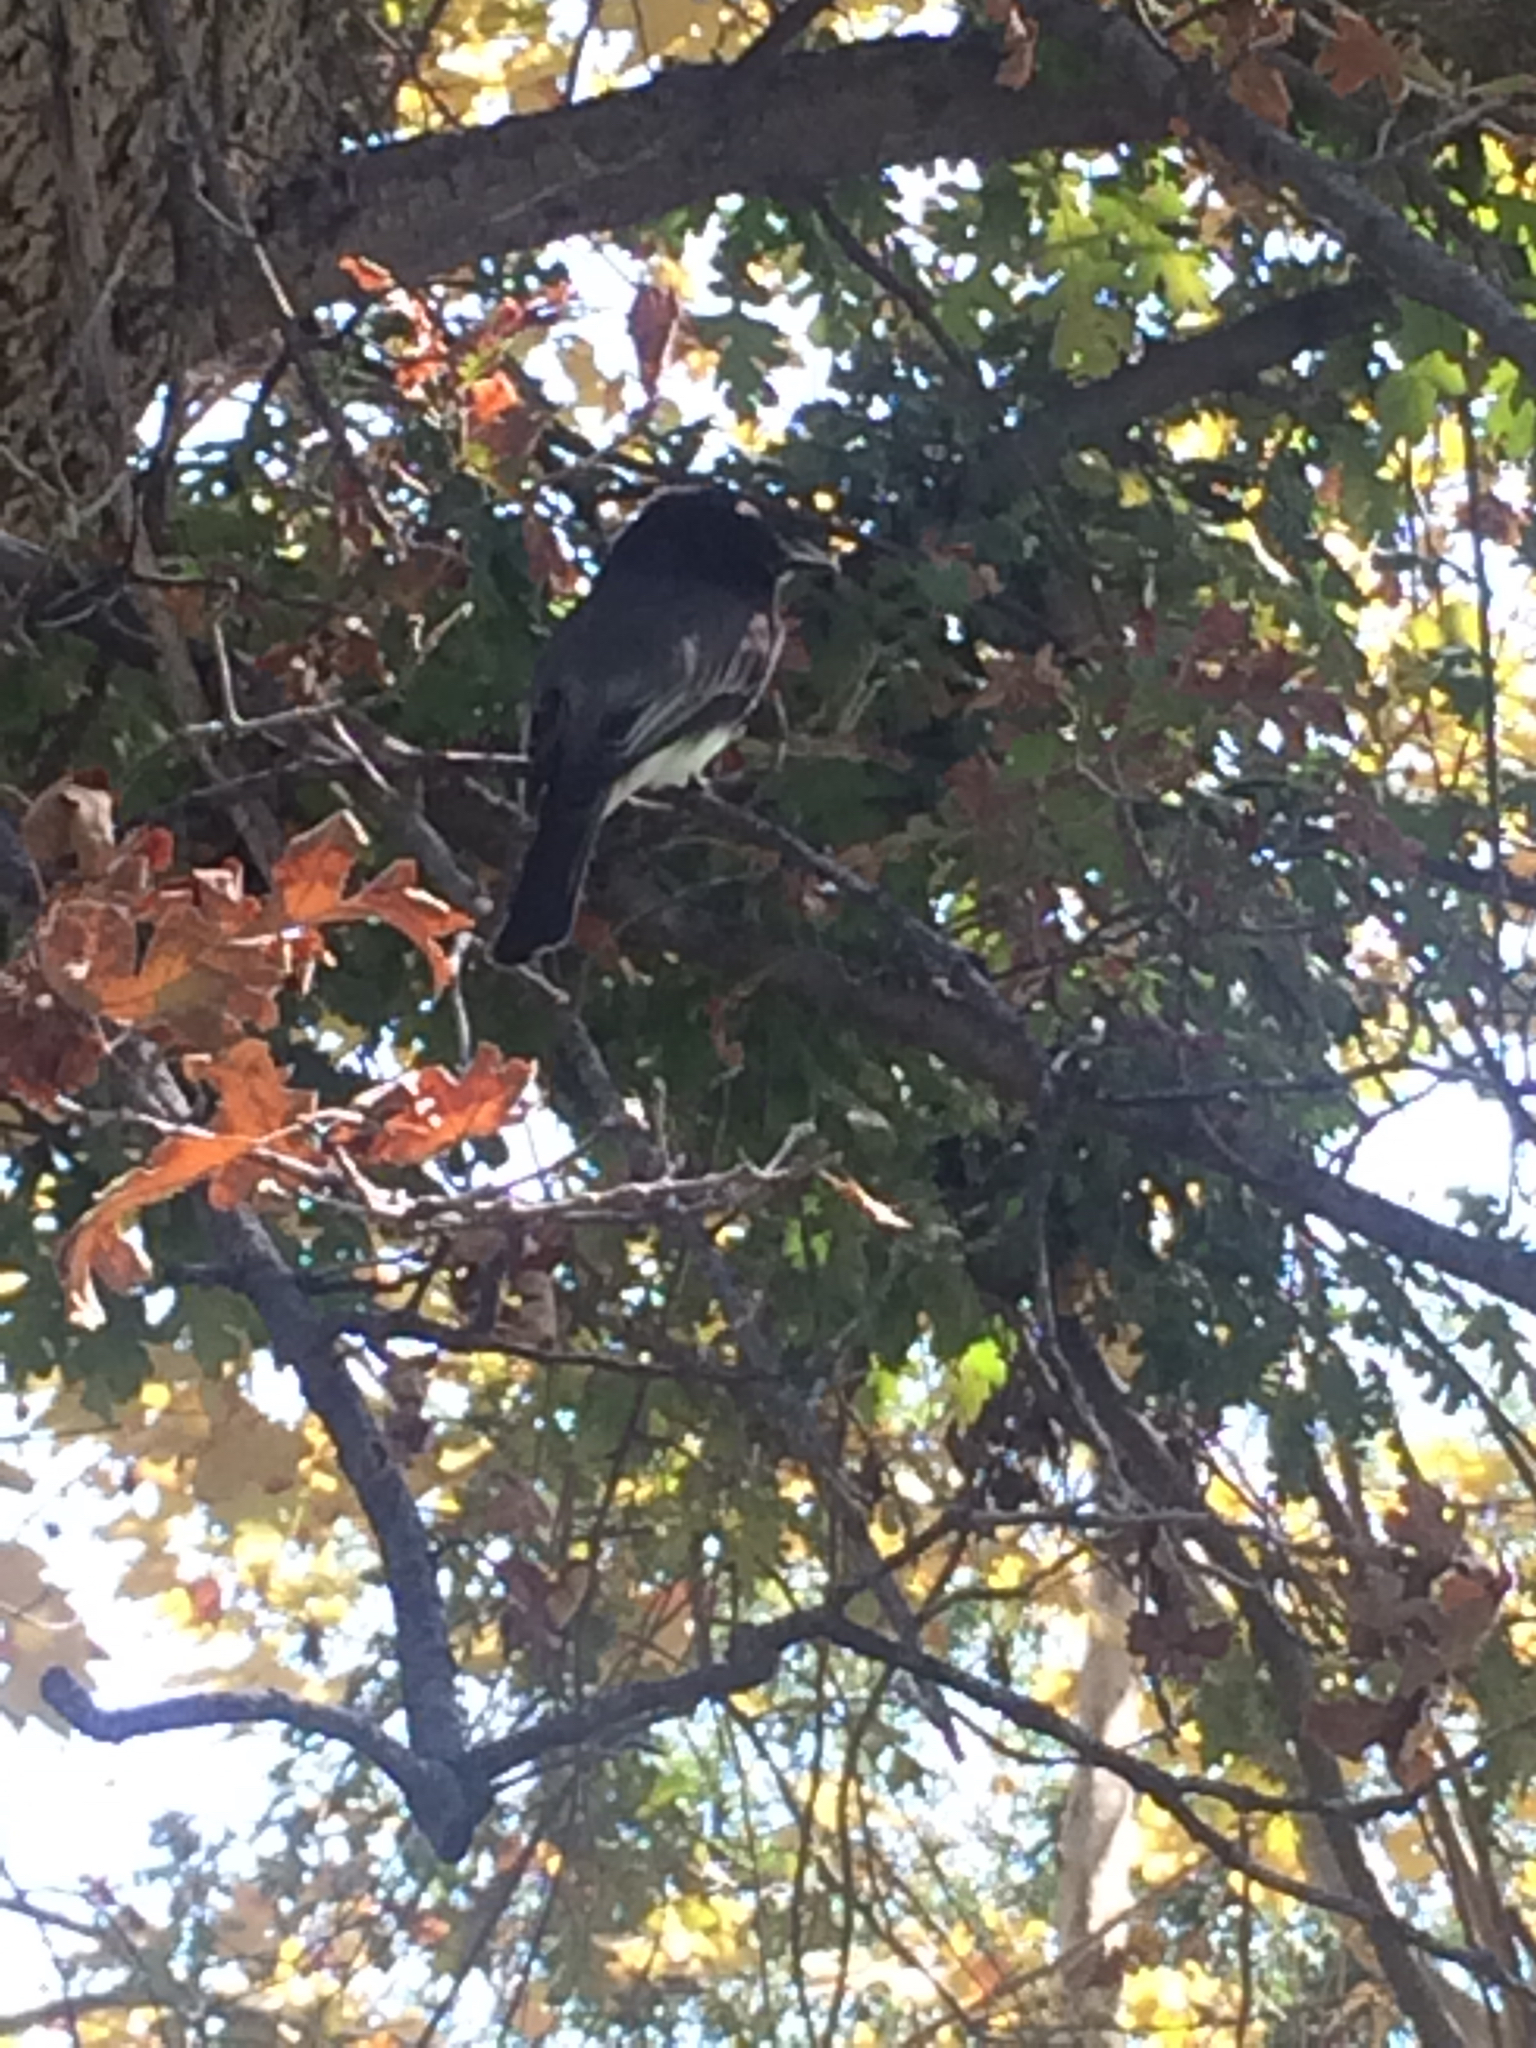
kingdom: Animalia
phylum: Chordata
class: Aves
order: Passeriformes
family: Tyrannidae
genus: Sayornis
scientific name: Sayornis nigricans
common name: Black phoebe
